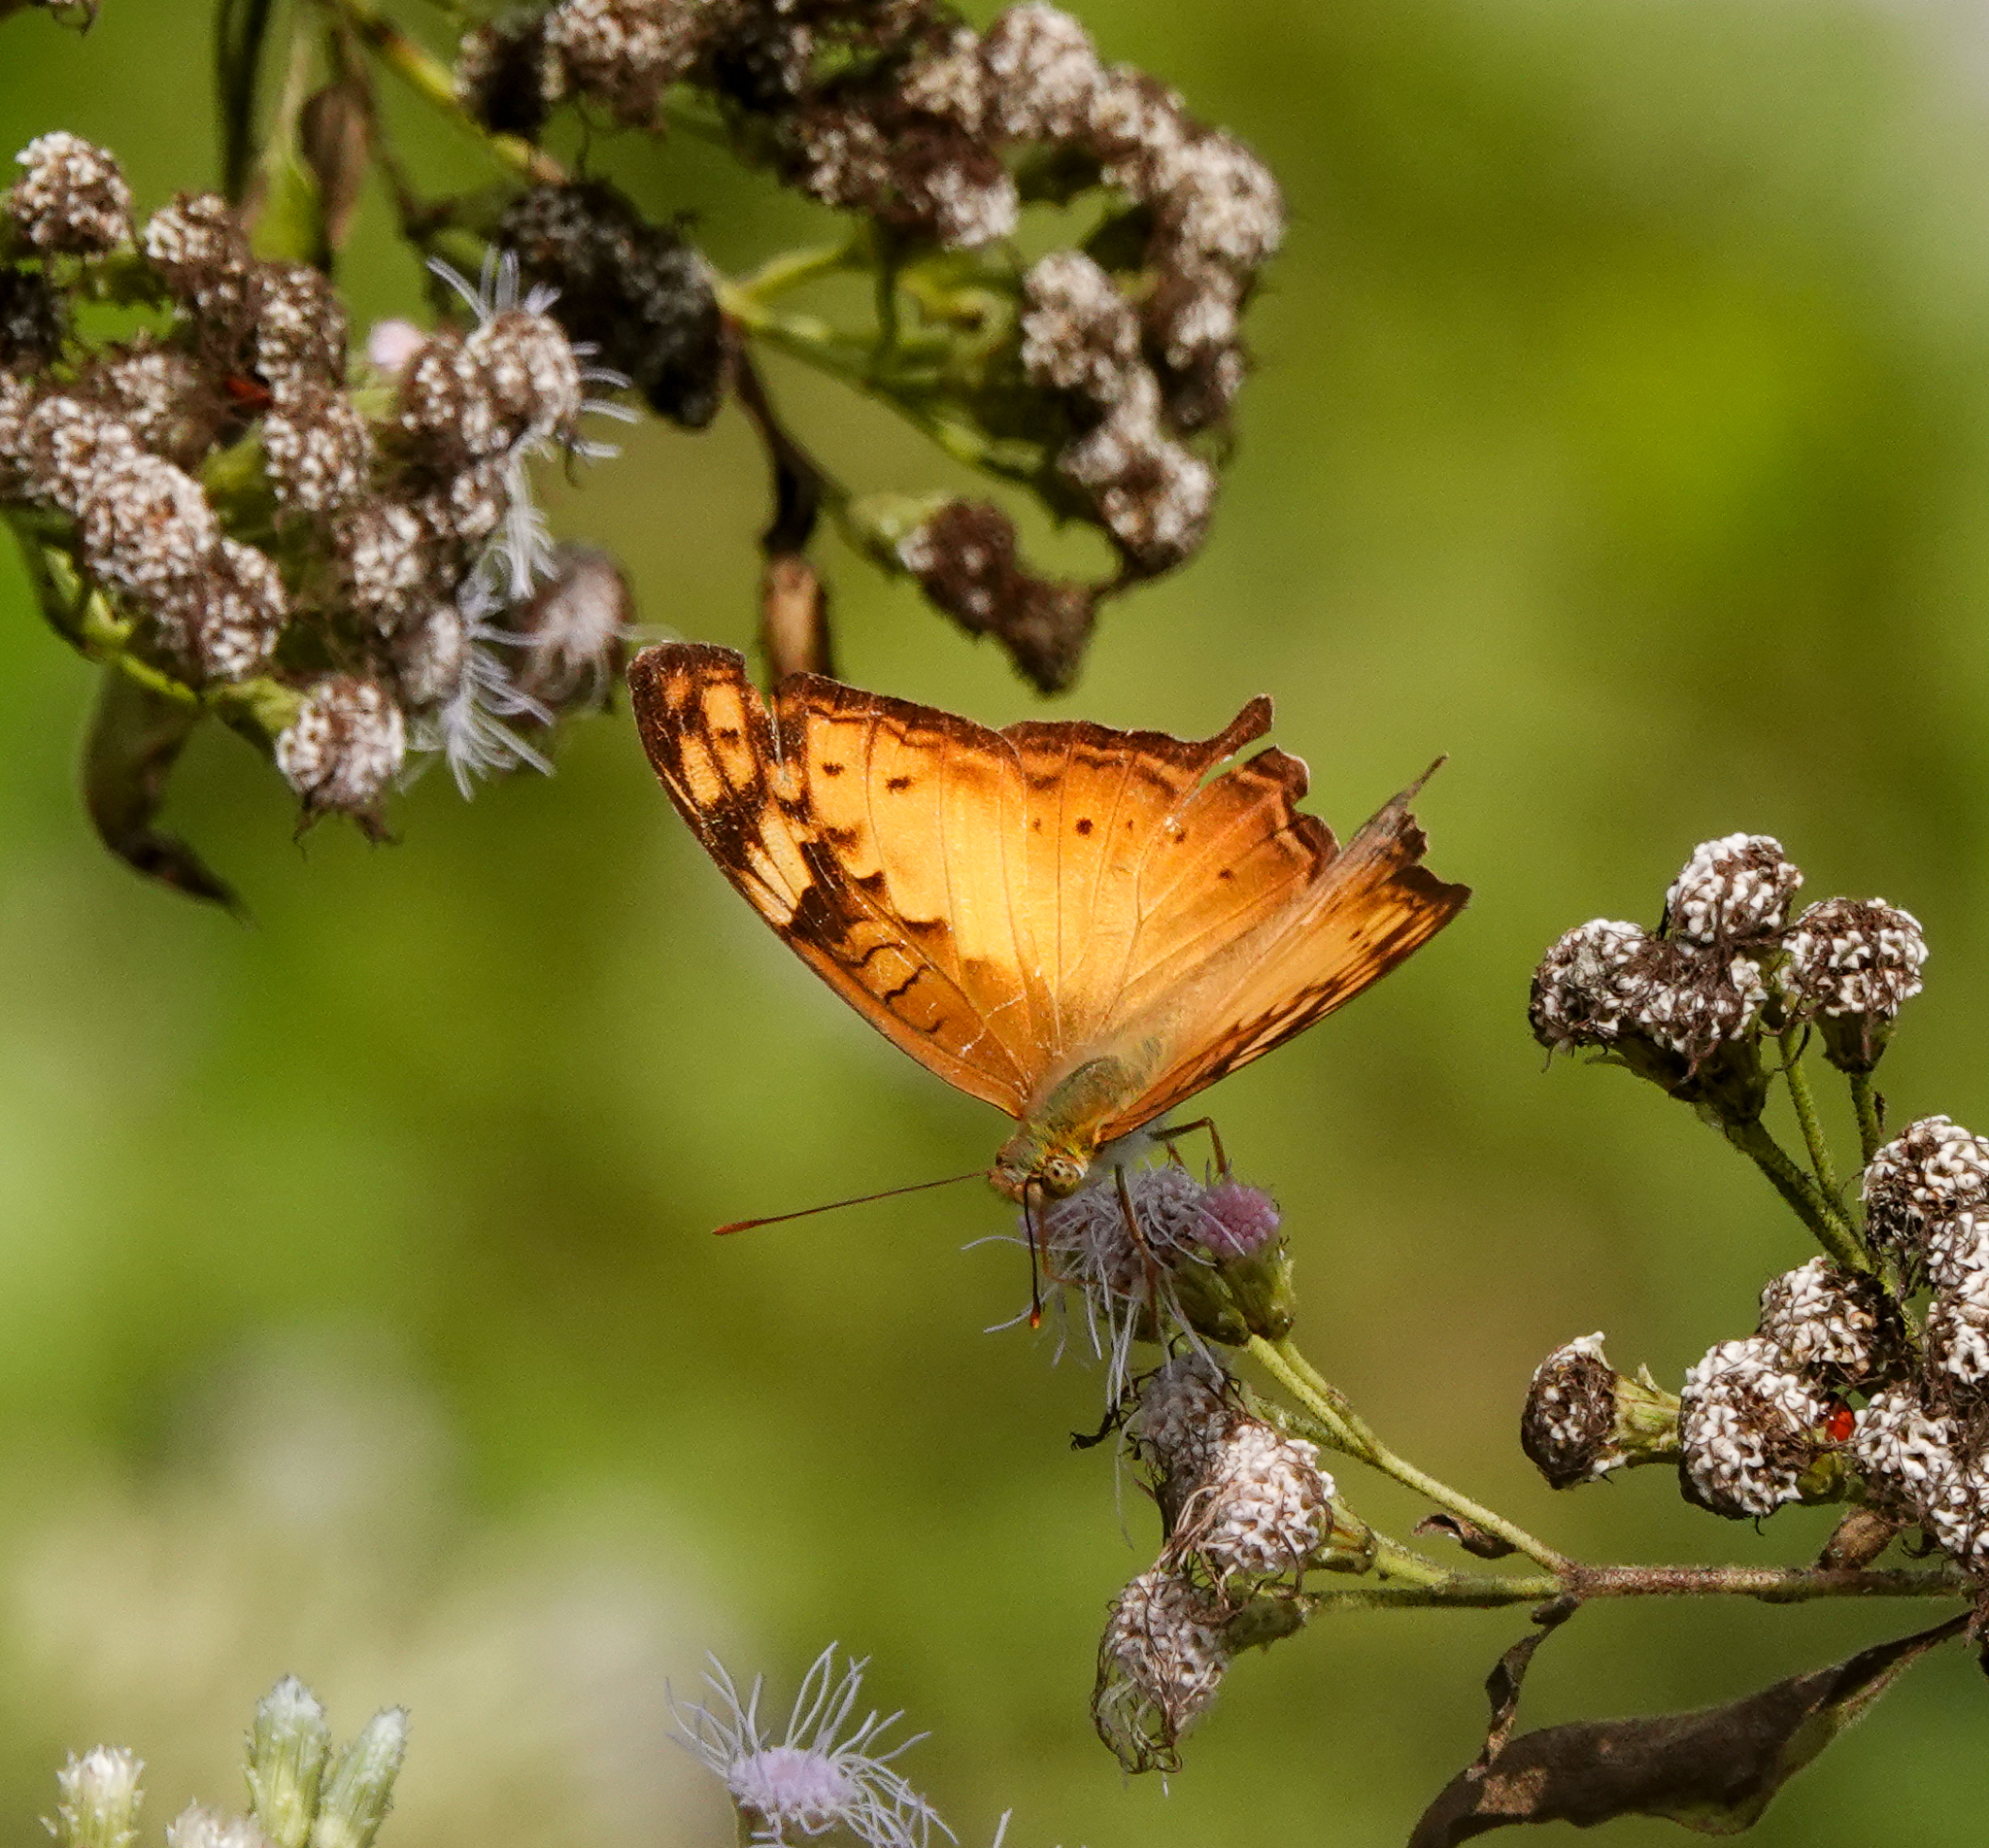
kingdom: Animalia
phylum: Arthropoda
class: Insecta
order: Lepidoptera
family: Nymphalidae
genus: Vagrans
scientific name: Vagrans sinha
